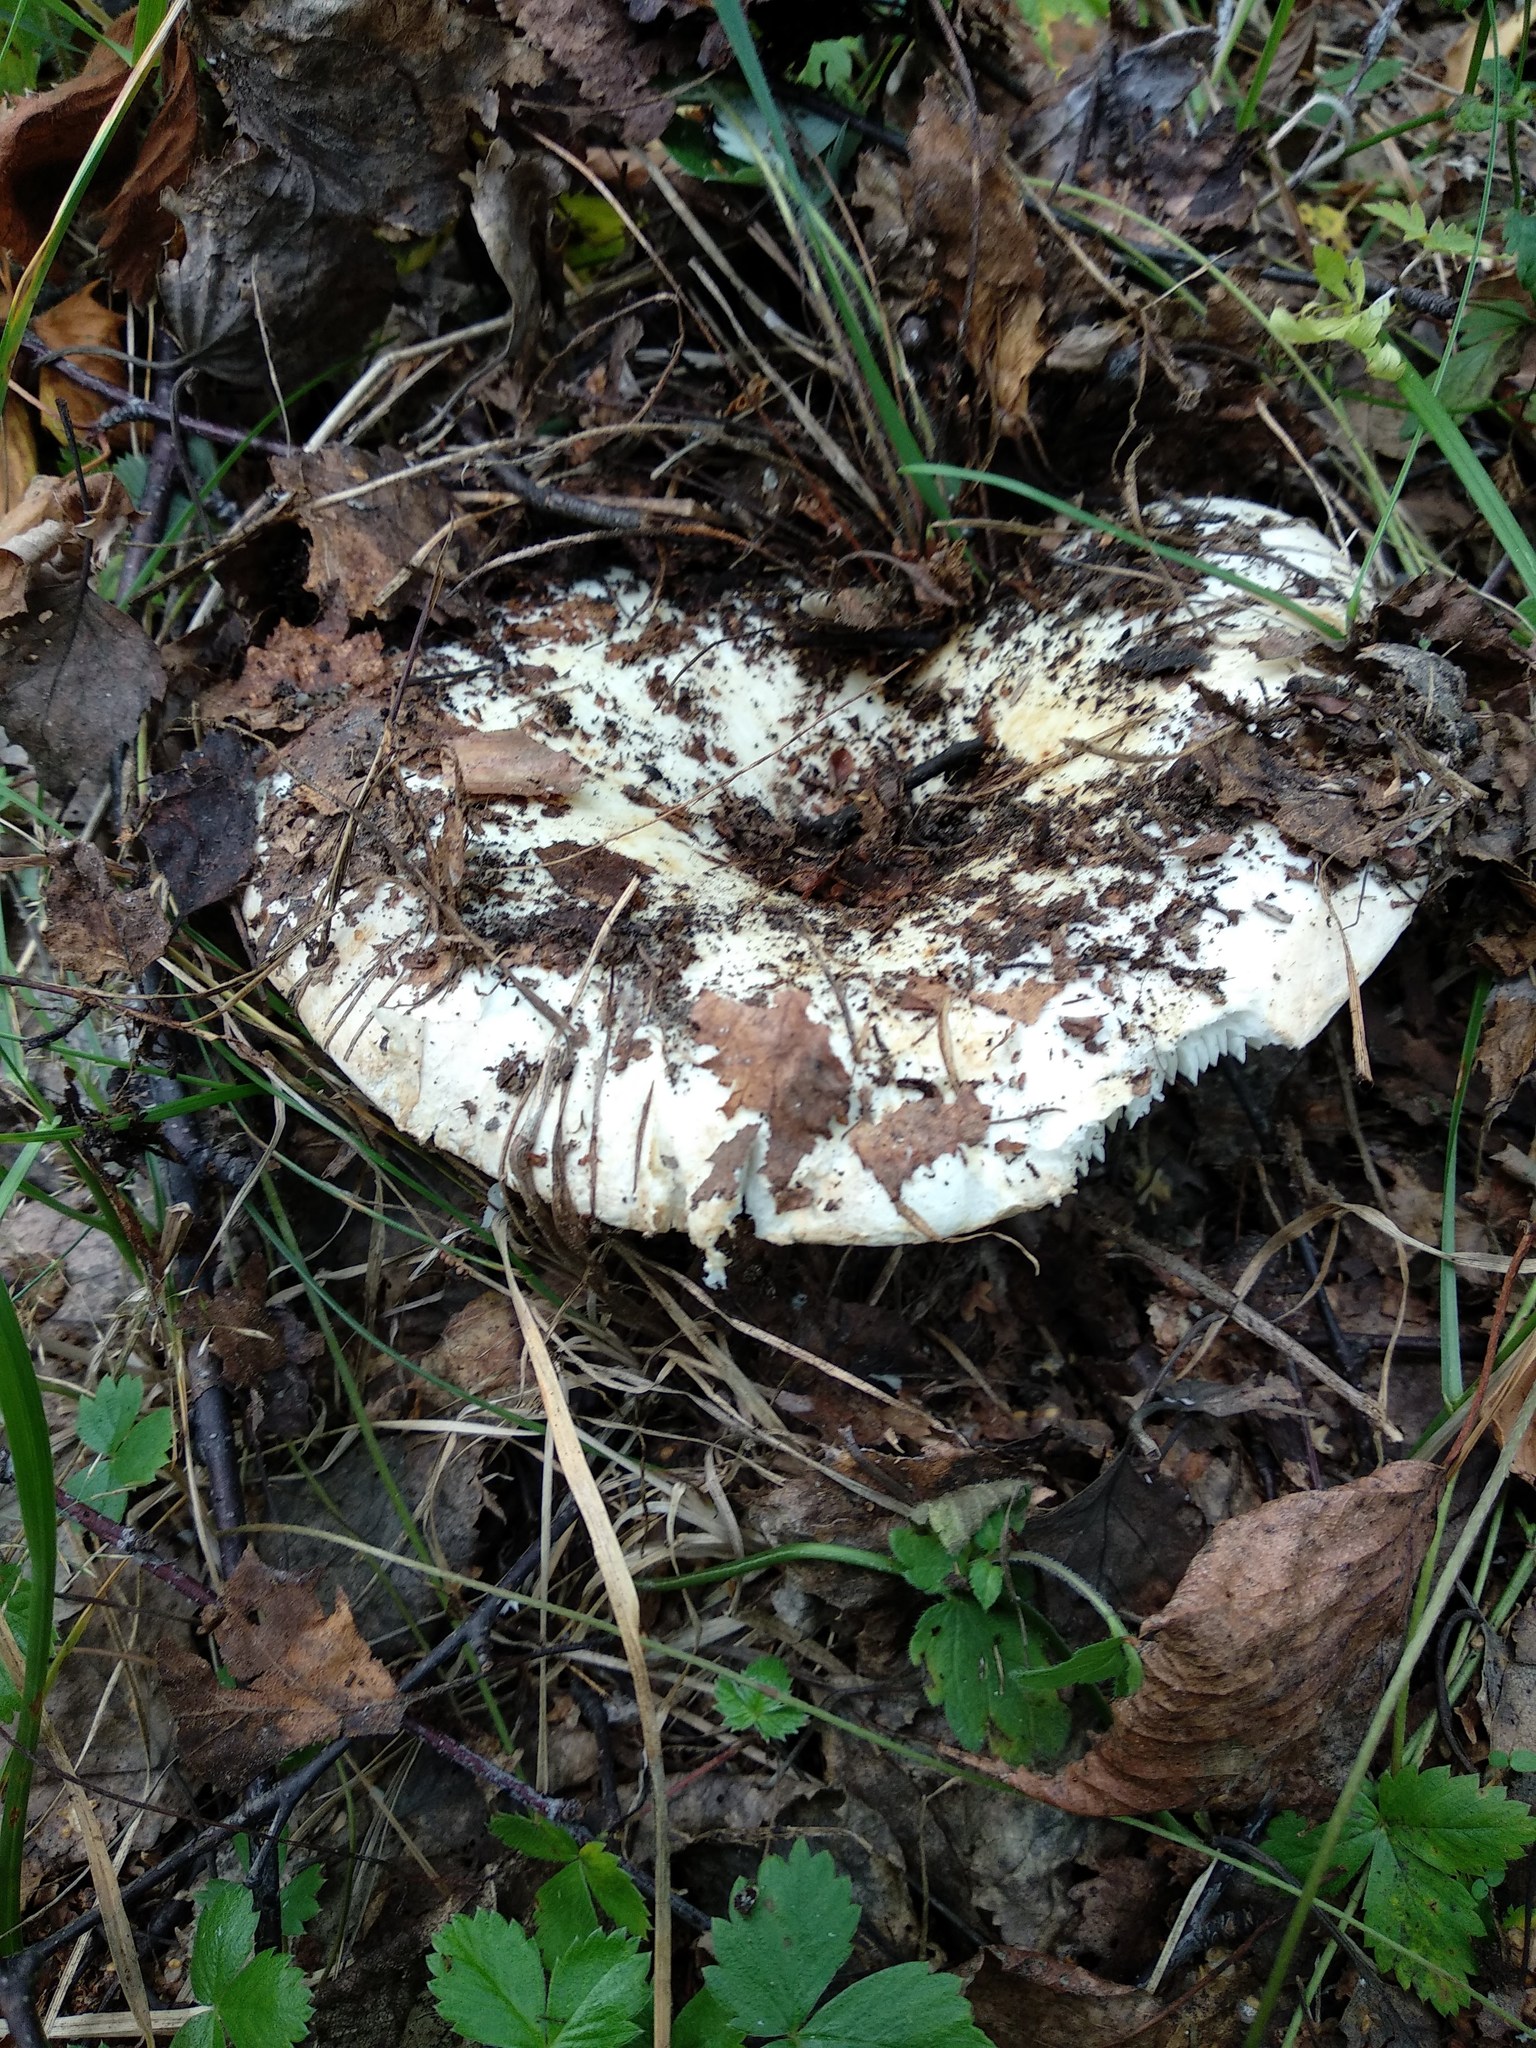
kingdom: Fungi
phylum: Basidiomycota
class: Agaricomycetes
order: Russulales
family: Russulaceae
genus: Lactarius
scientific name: Lactarius resimus
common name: Rollrim milkcap
